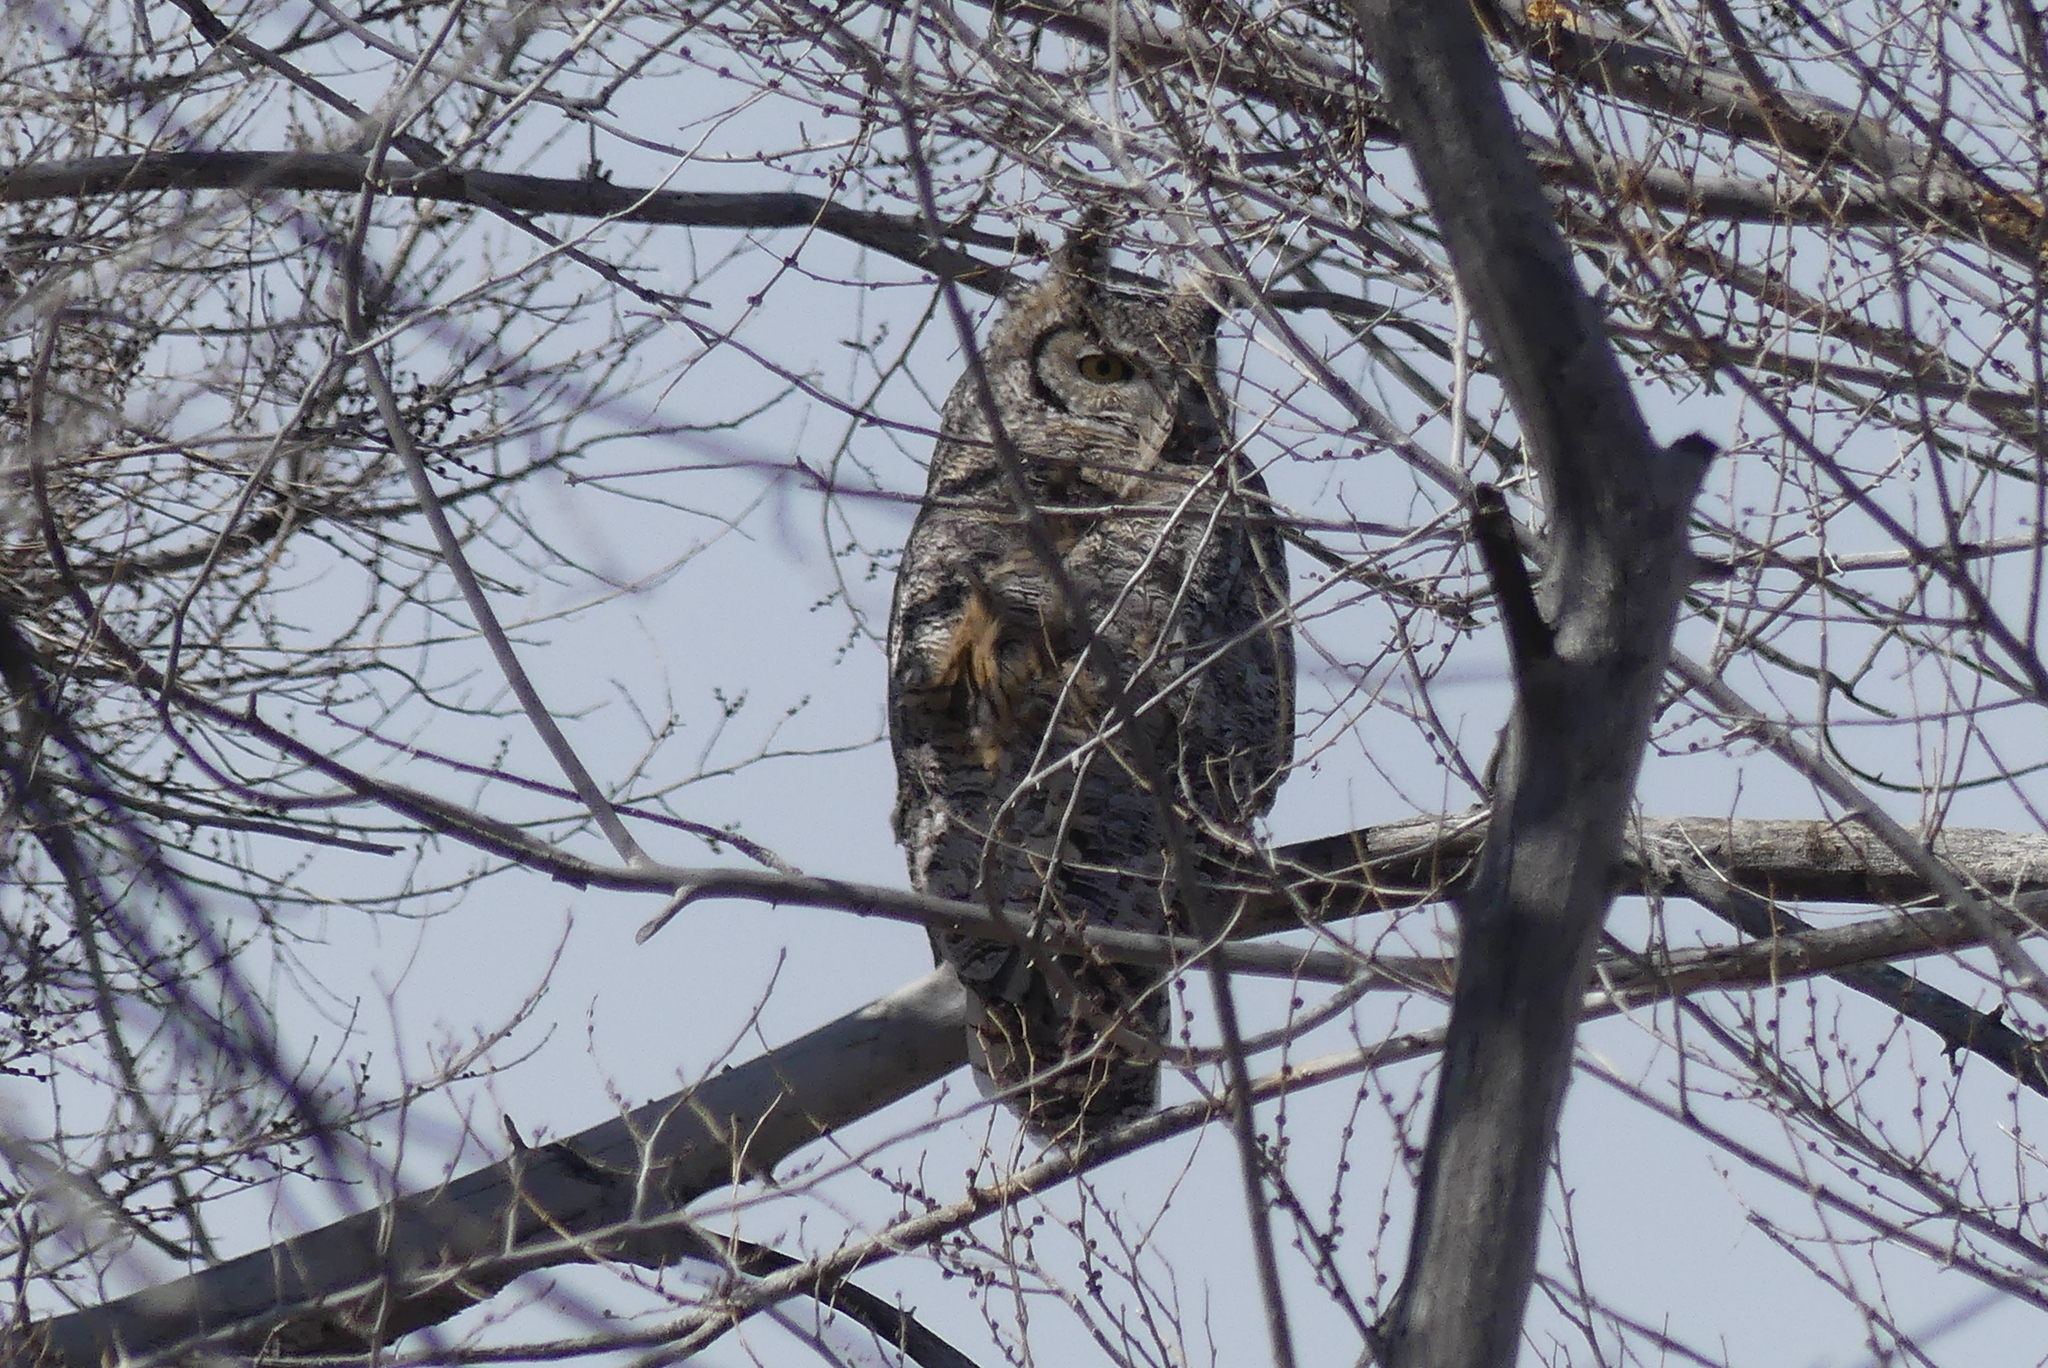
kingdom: Animalia
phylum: Chordata
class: Aves
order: Strigiformes
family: Strigidae
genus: Bubo
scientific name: Bubo virginianus
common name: Great horned owl
